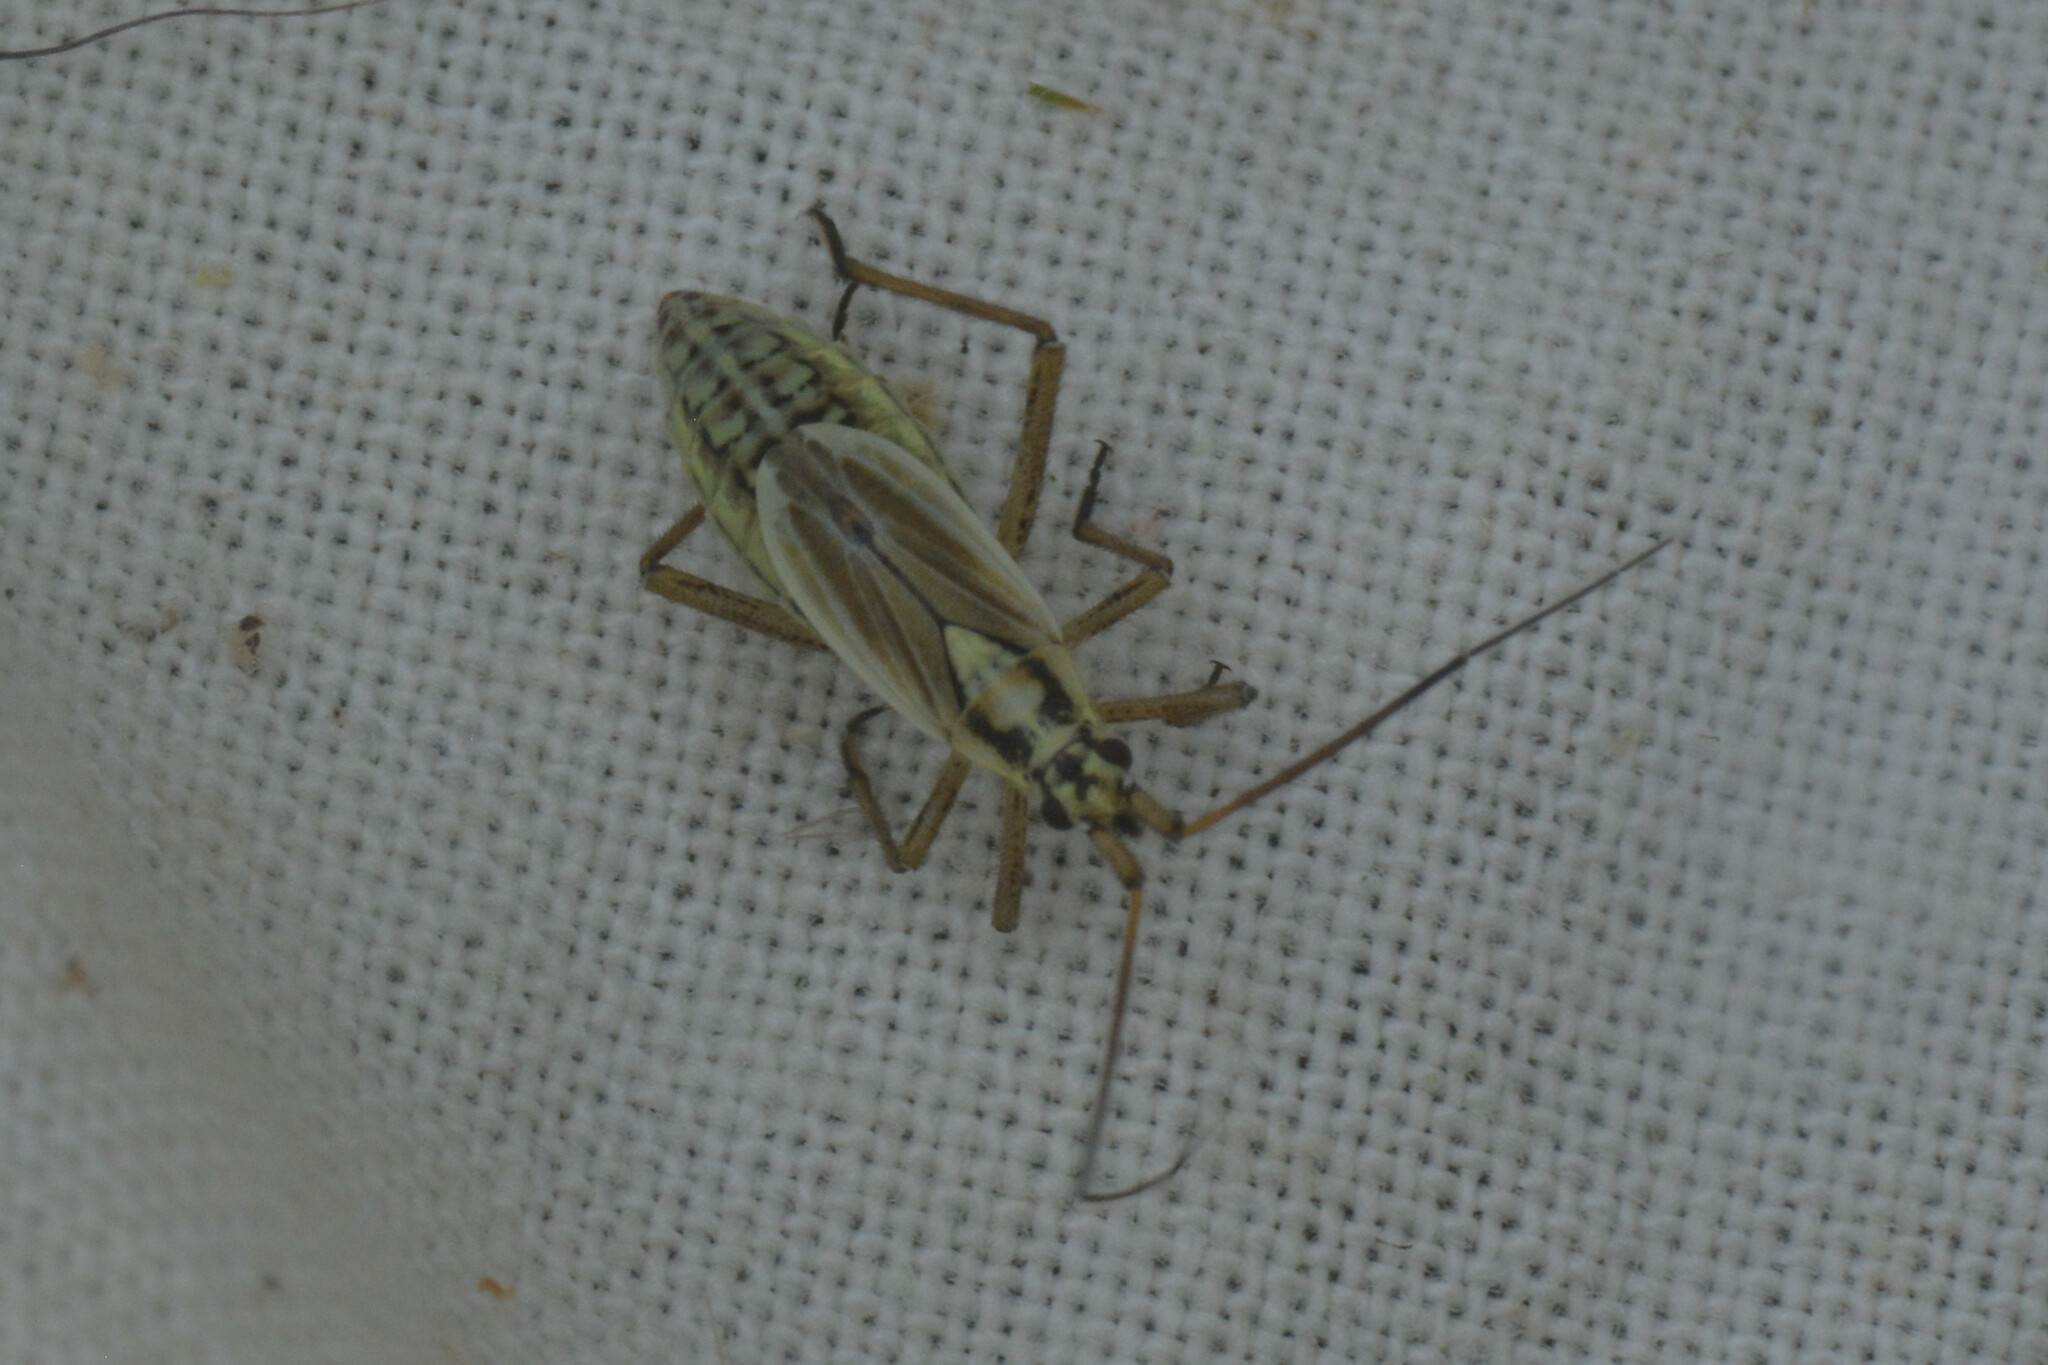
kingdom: Animalia
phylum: Arthropoda
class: Insecta
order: Hemiptera
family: Miridae
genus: Leptopterna
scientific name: Leptopterna dolabrata
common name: Meadow plant bug
